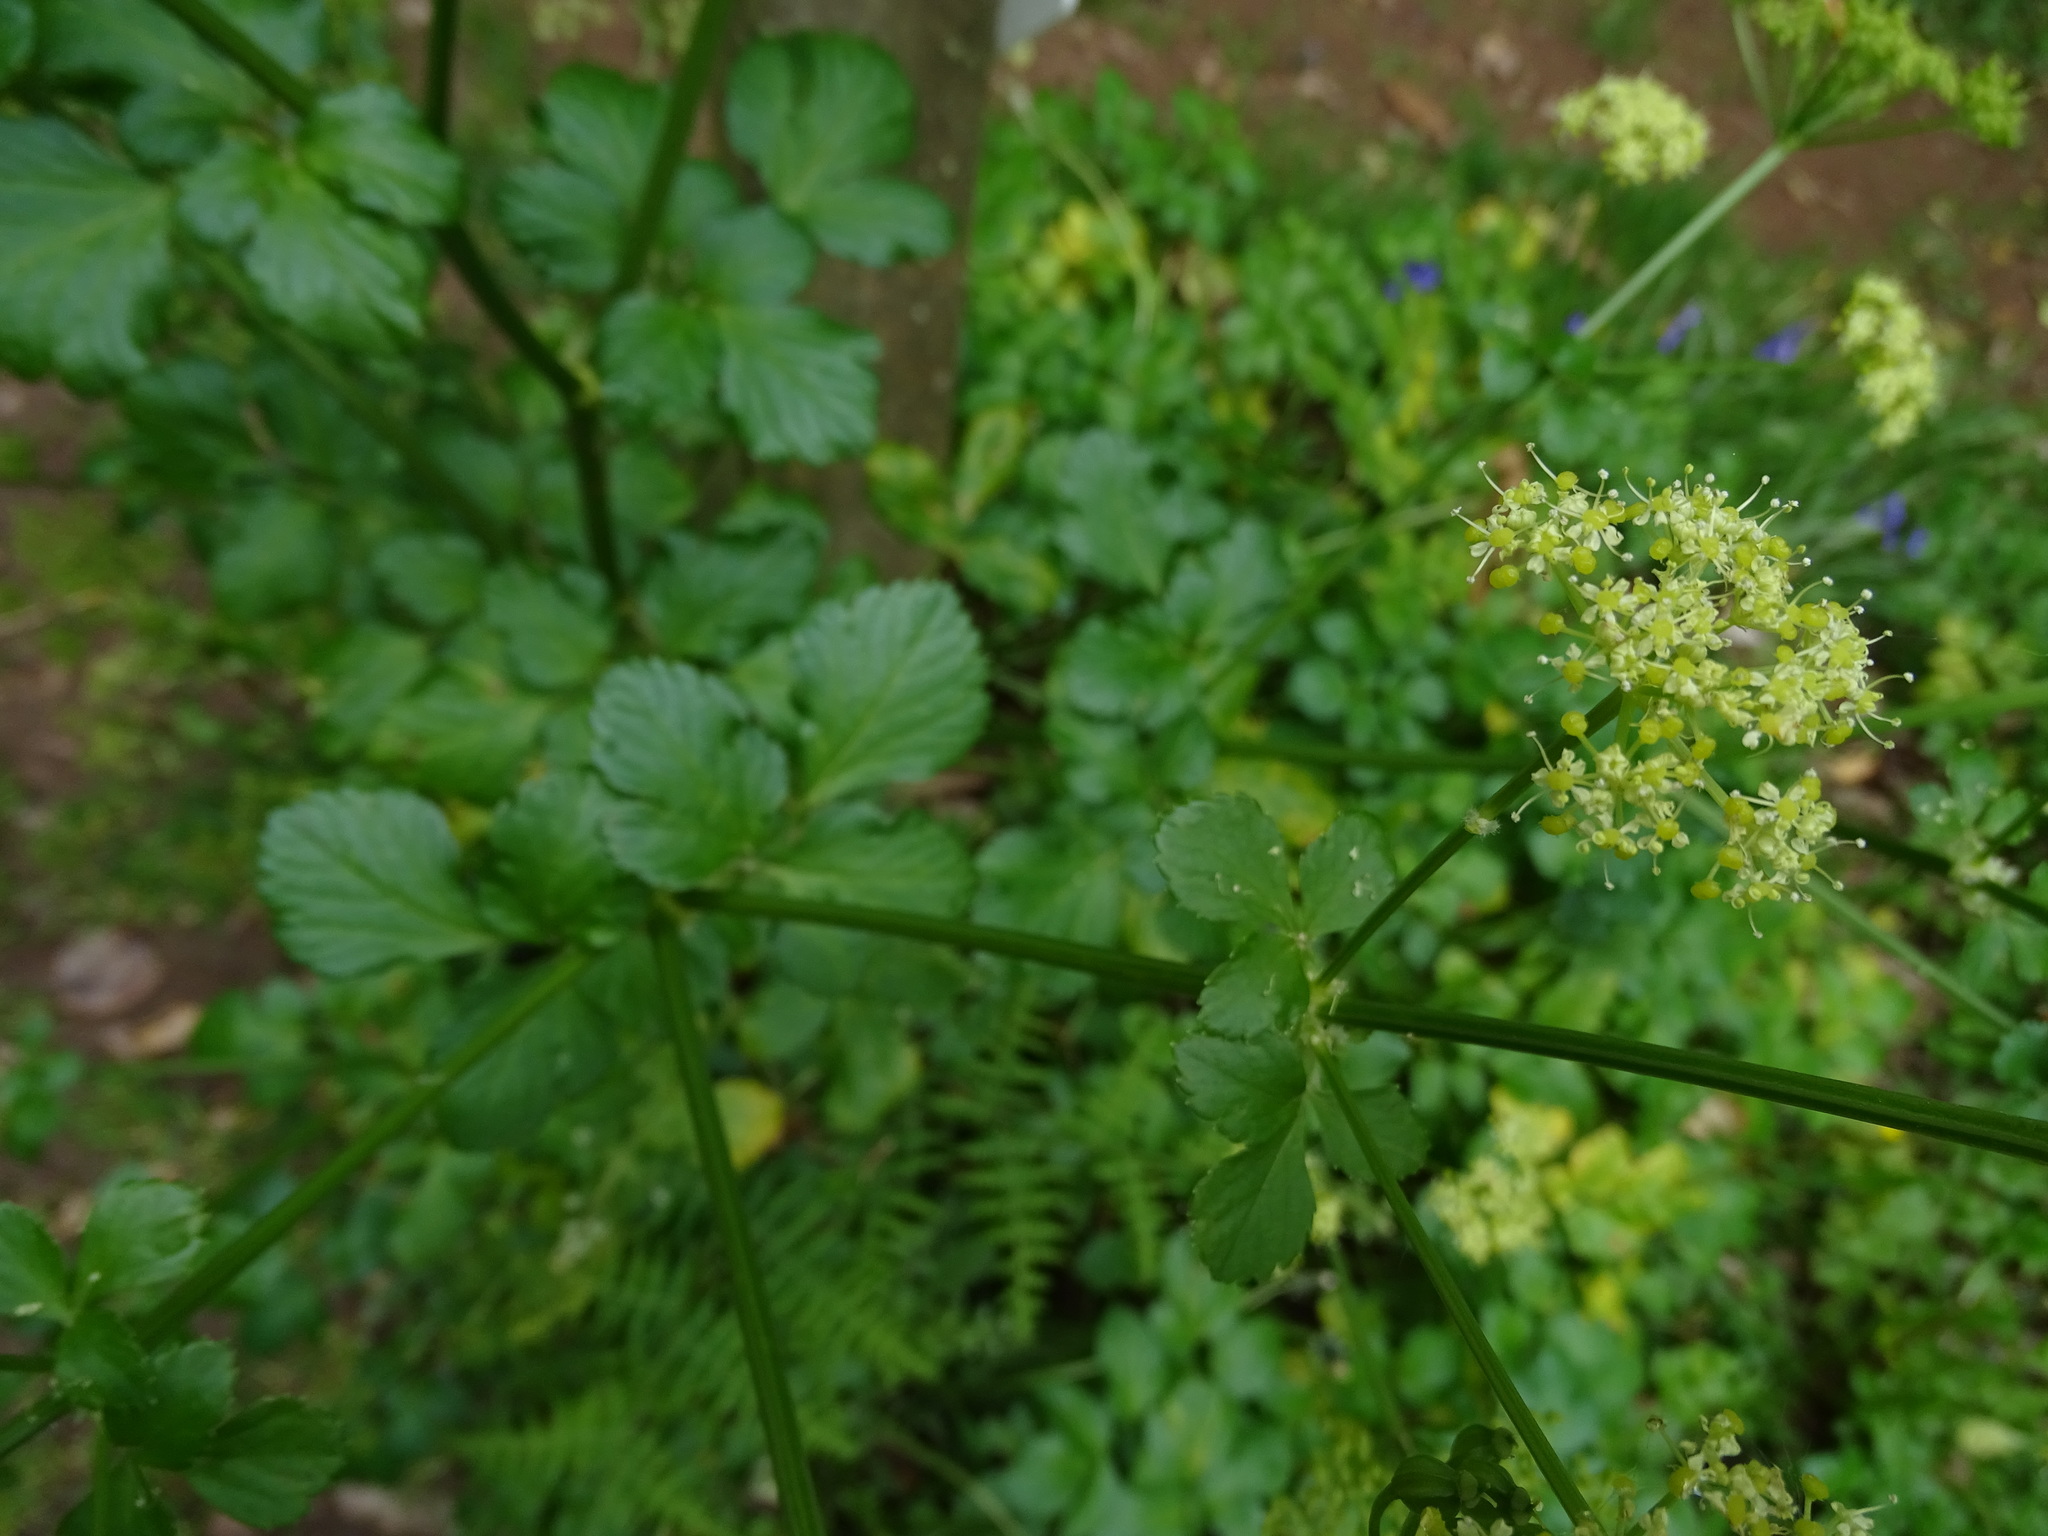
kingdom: Plantae
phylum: Tracheophyta
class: Magnoliopsida
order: Apiales
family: Apiaceae
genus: Smyrnium
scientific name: Smyrnium olusatrum
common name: Alexanders
